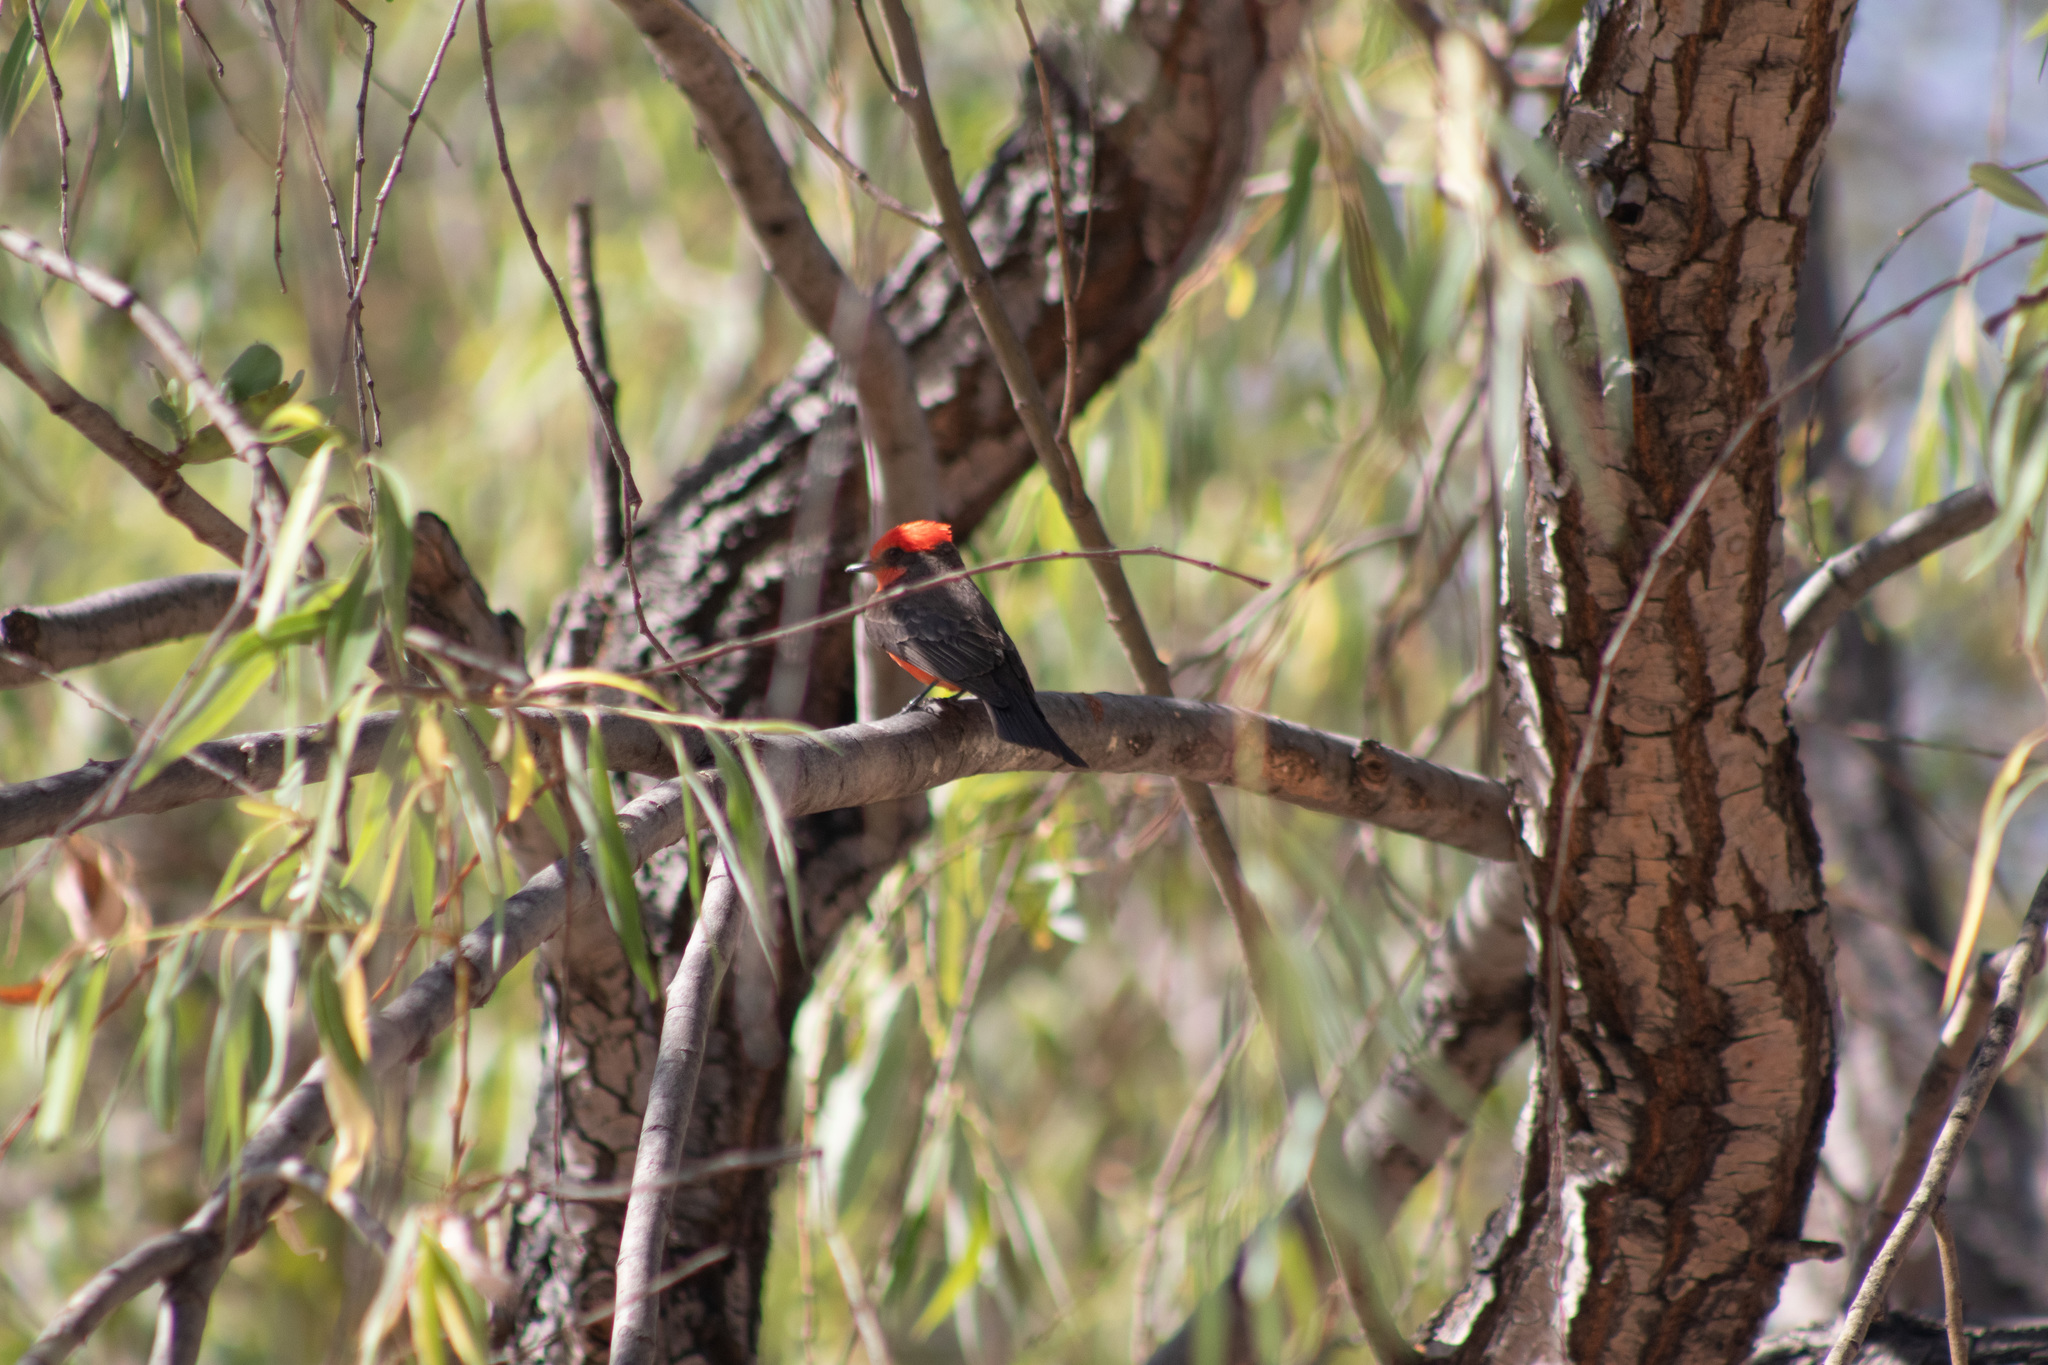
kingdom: Animalia
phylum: Chordata
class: Aves
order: Passeriformes
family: Tyrannidae
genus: Pyrocephalus
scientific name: Pyrocephalus rubinus
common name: Vermilion flycatcher
